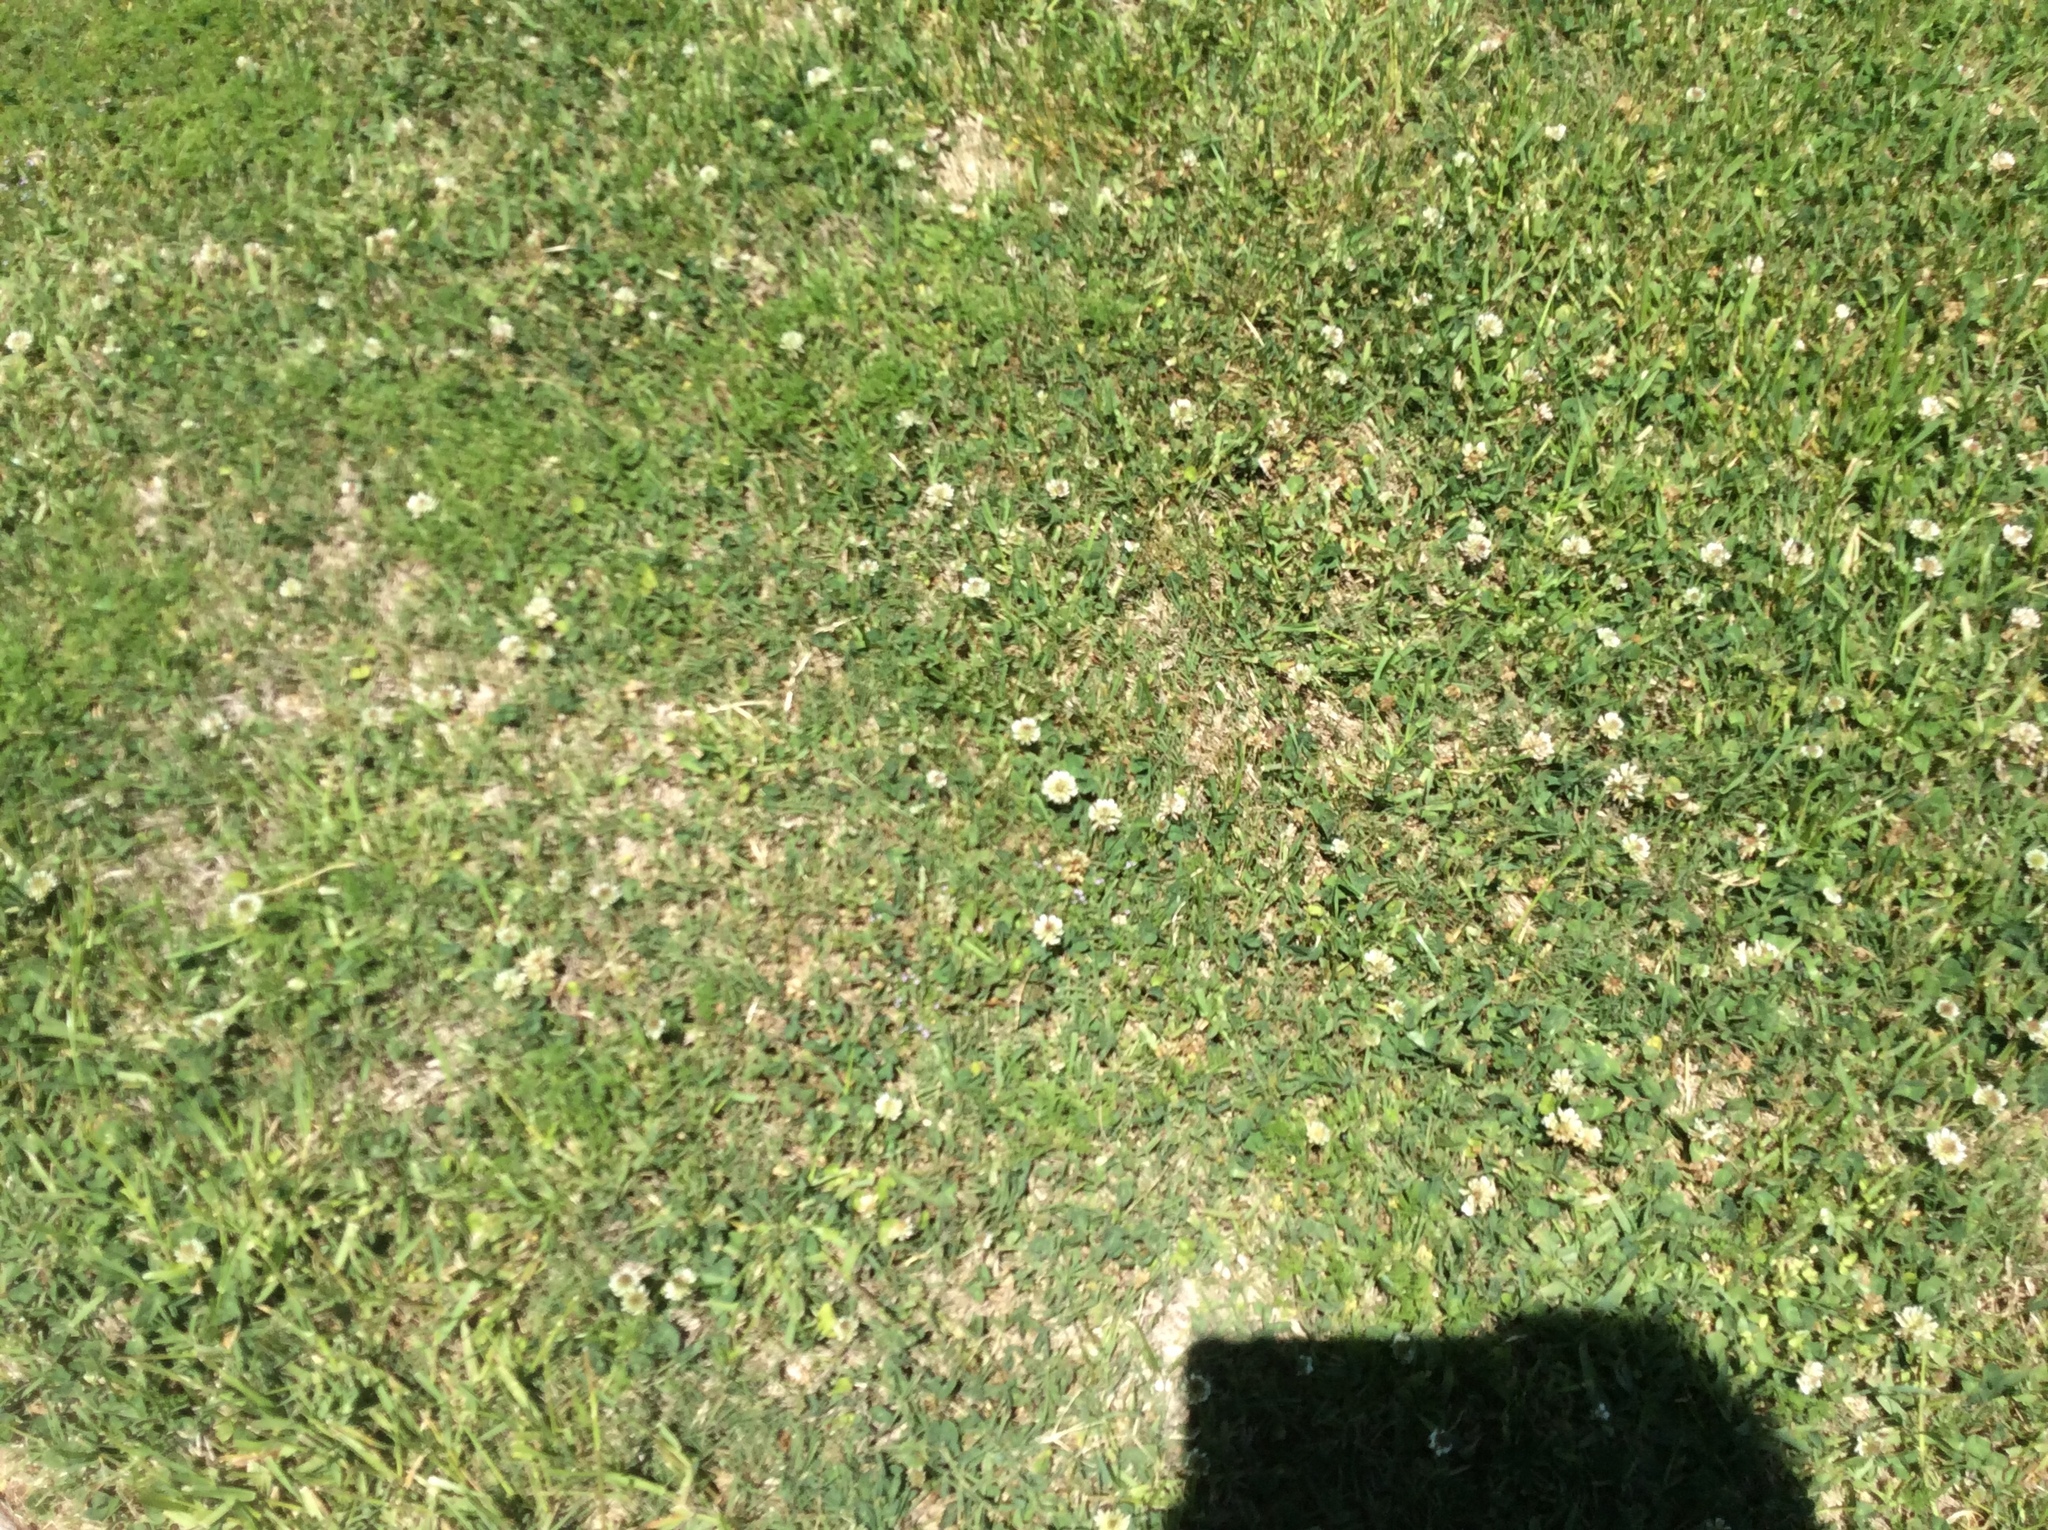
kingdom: Plantae
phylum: Tracheophyta
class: Magnoliopsida
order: Fabales
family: Fabaceae
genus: Trifolium
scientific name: Trifolium repens
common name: White clover
